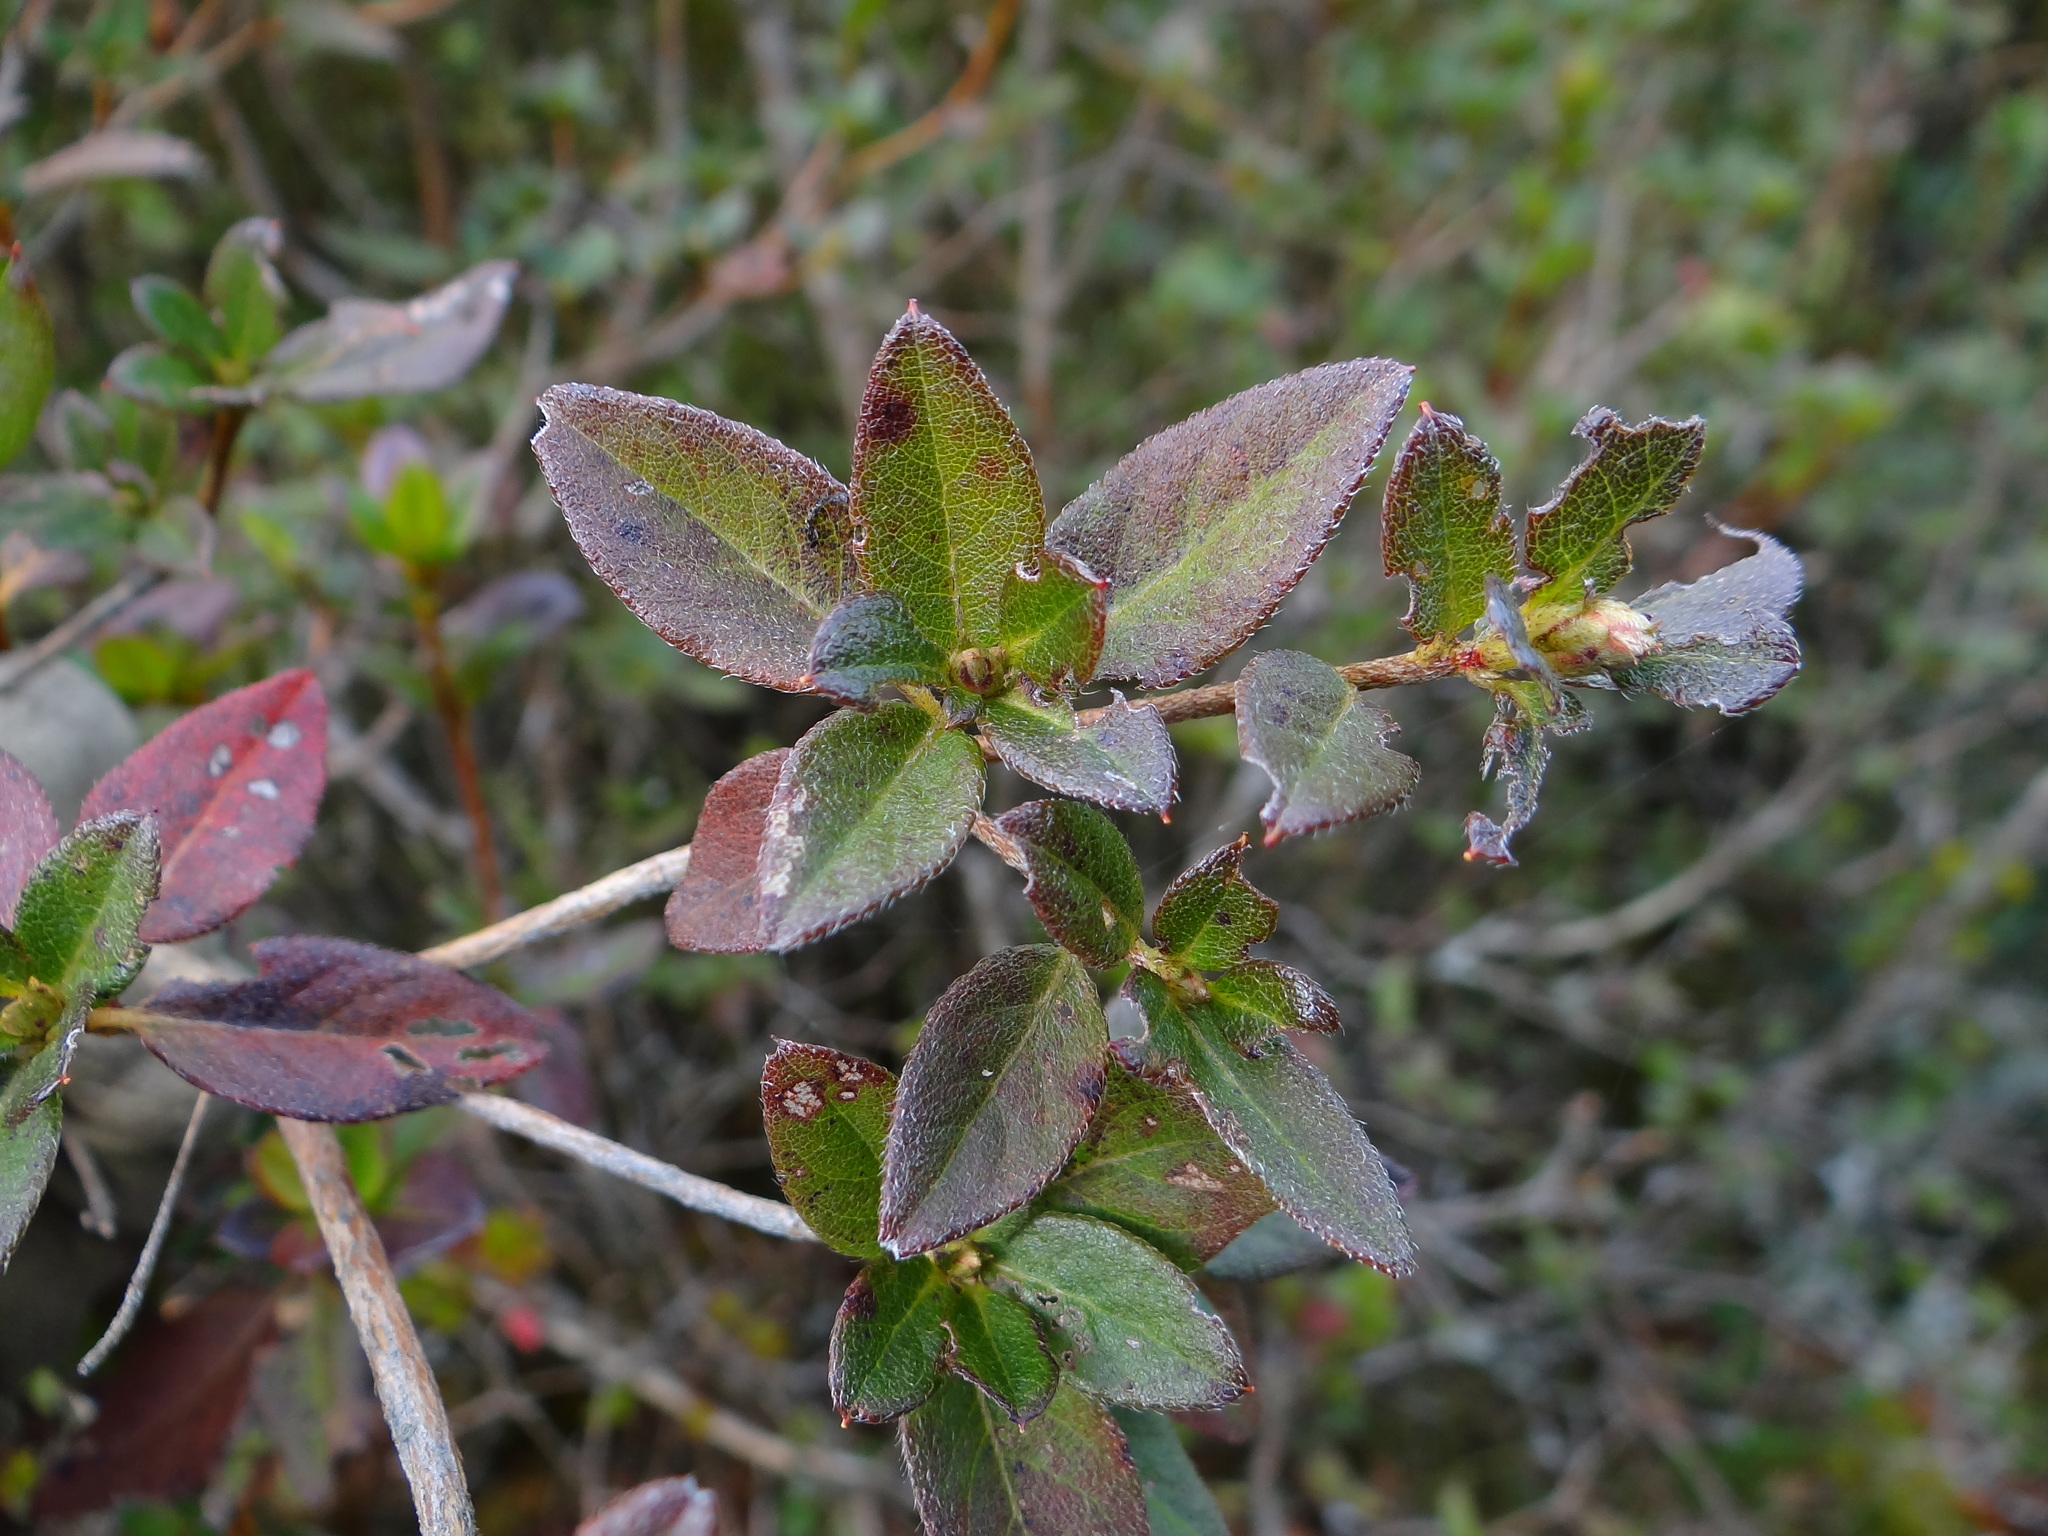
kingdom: Plantae
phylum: Tracheophyta
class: Magnoliopsida
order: Ericales
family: Ericaceae
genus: Rhododendron
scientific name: Rhododendron rubropilosum
